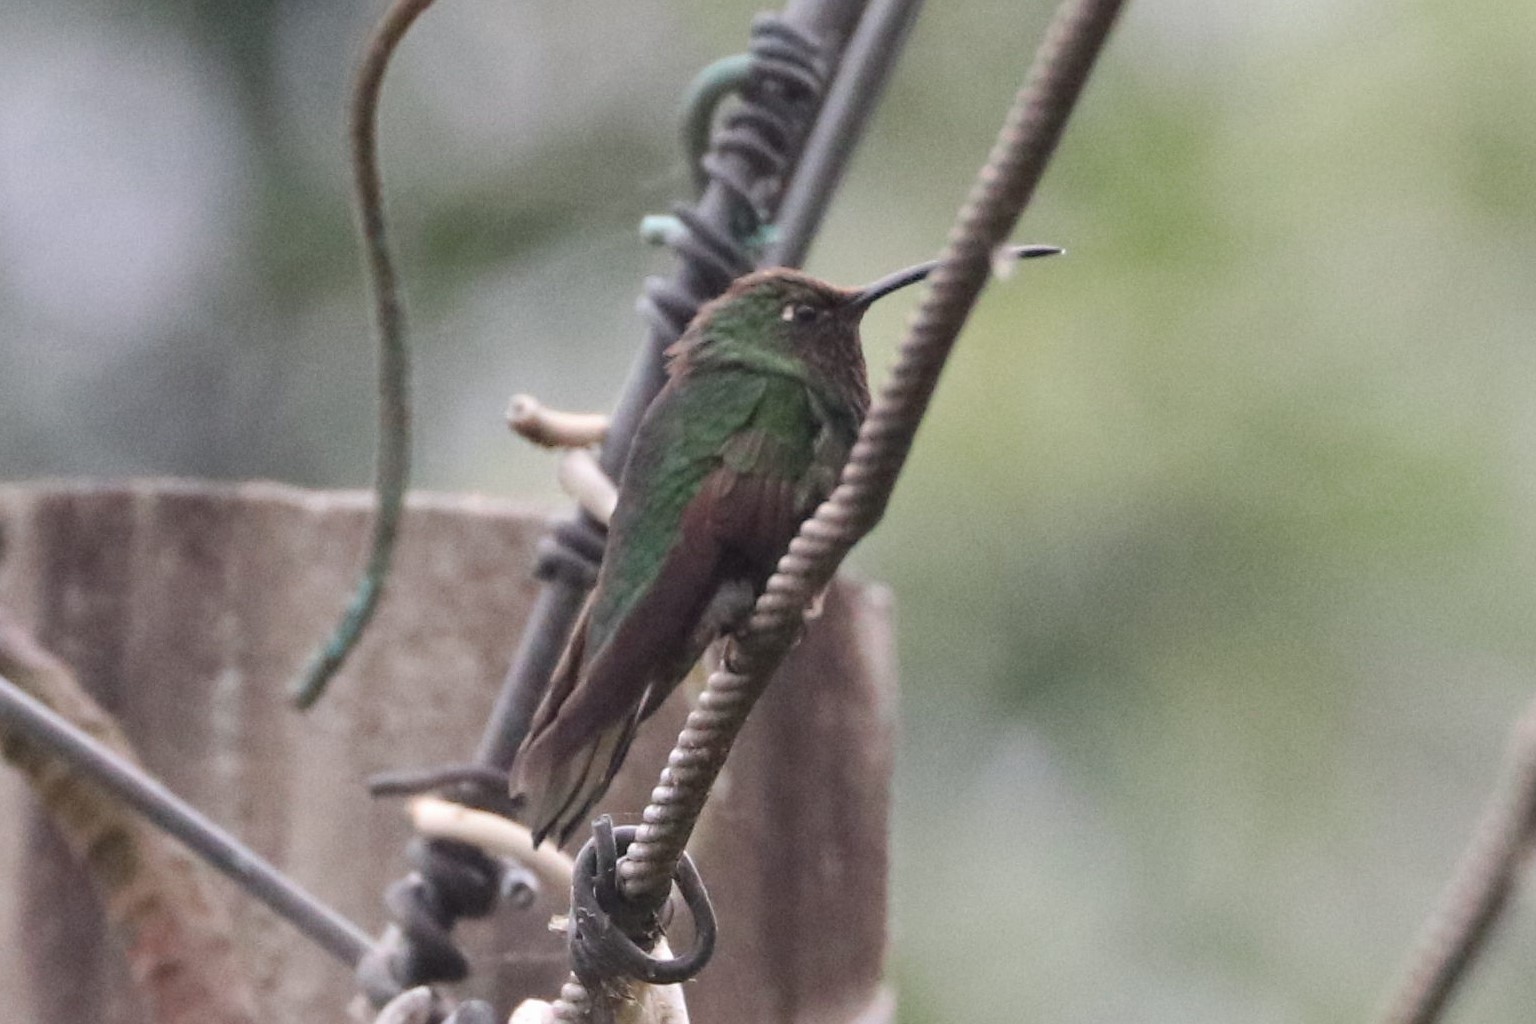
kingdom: Animalia
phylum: Chordata
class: Aves
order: Apodiformes
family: Trochilidae
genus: Lafresnaya
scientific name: Lafresnaya lafresnayi
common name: Mountain velvetbreast
